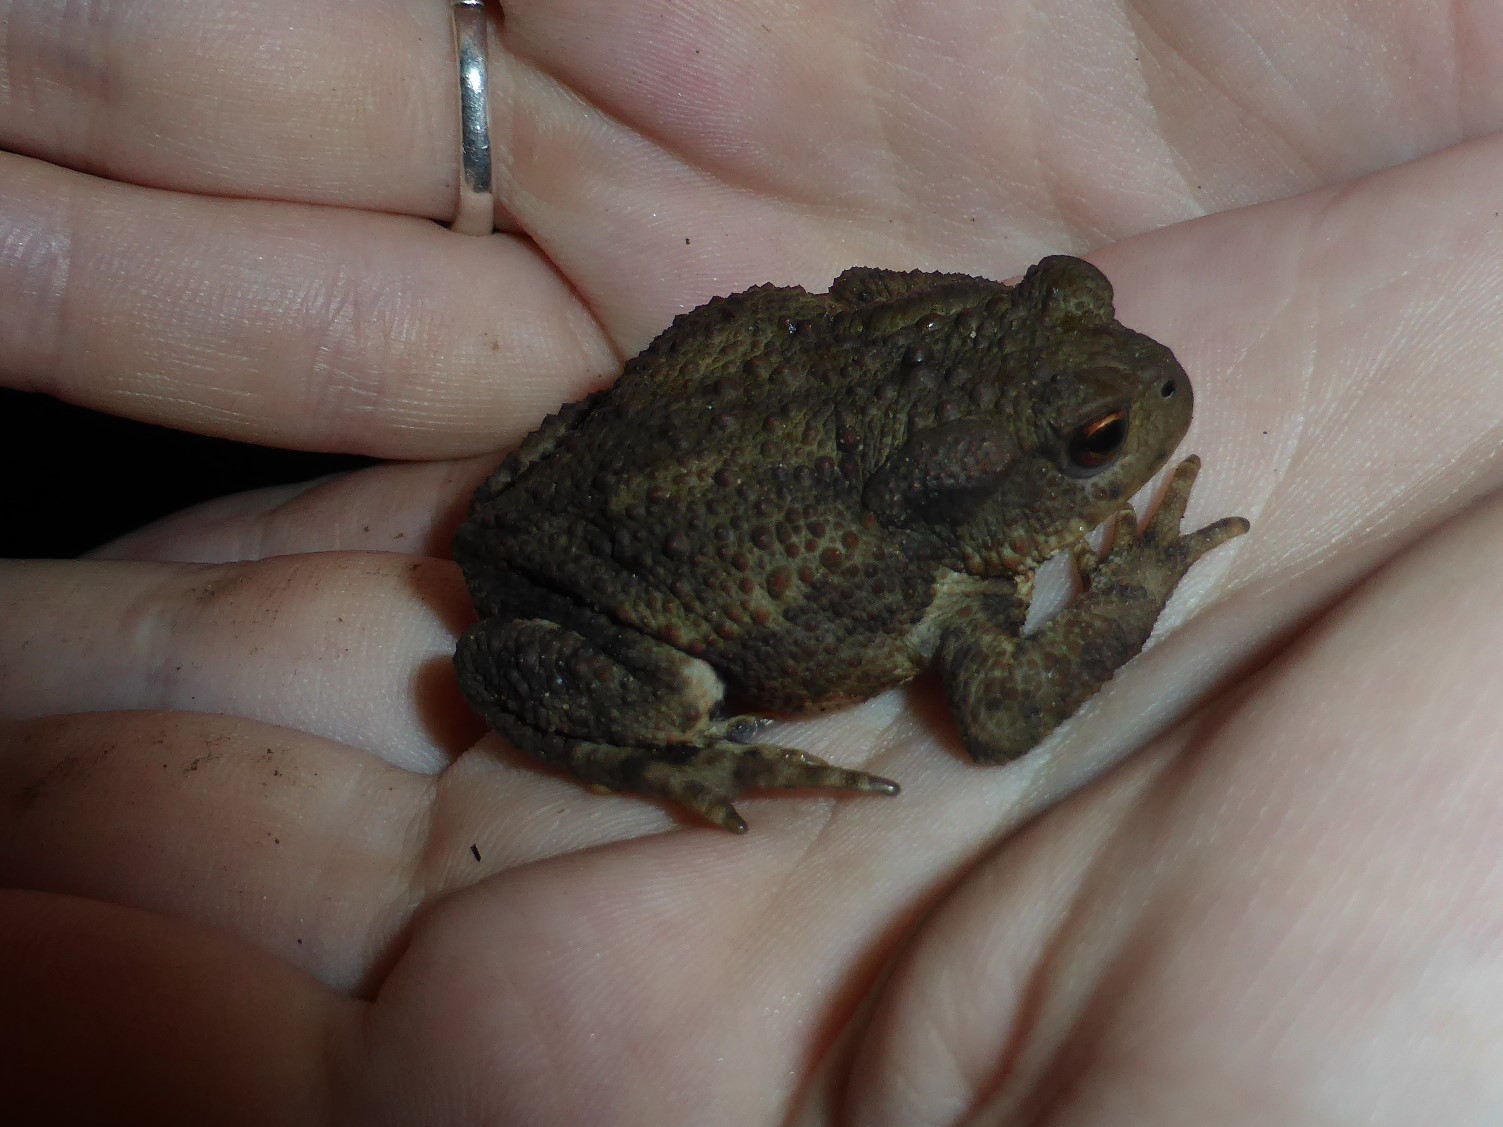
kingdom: Animalia
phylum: Chordata
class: Amphibia
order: Anura
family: Bufonidae
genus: Bufo
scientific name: Bufo bufo
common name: Common toad
